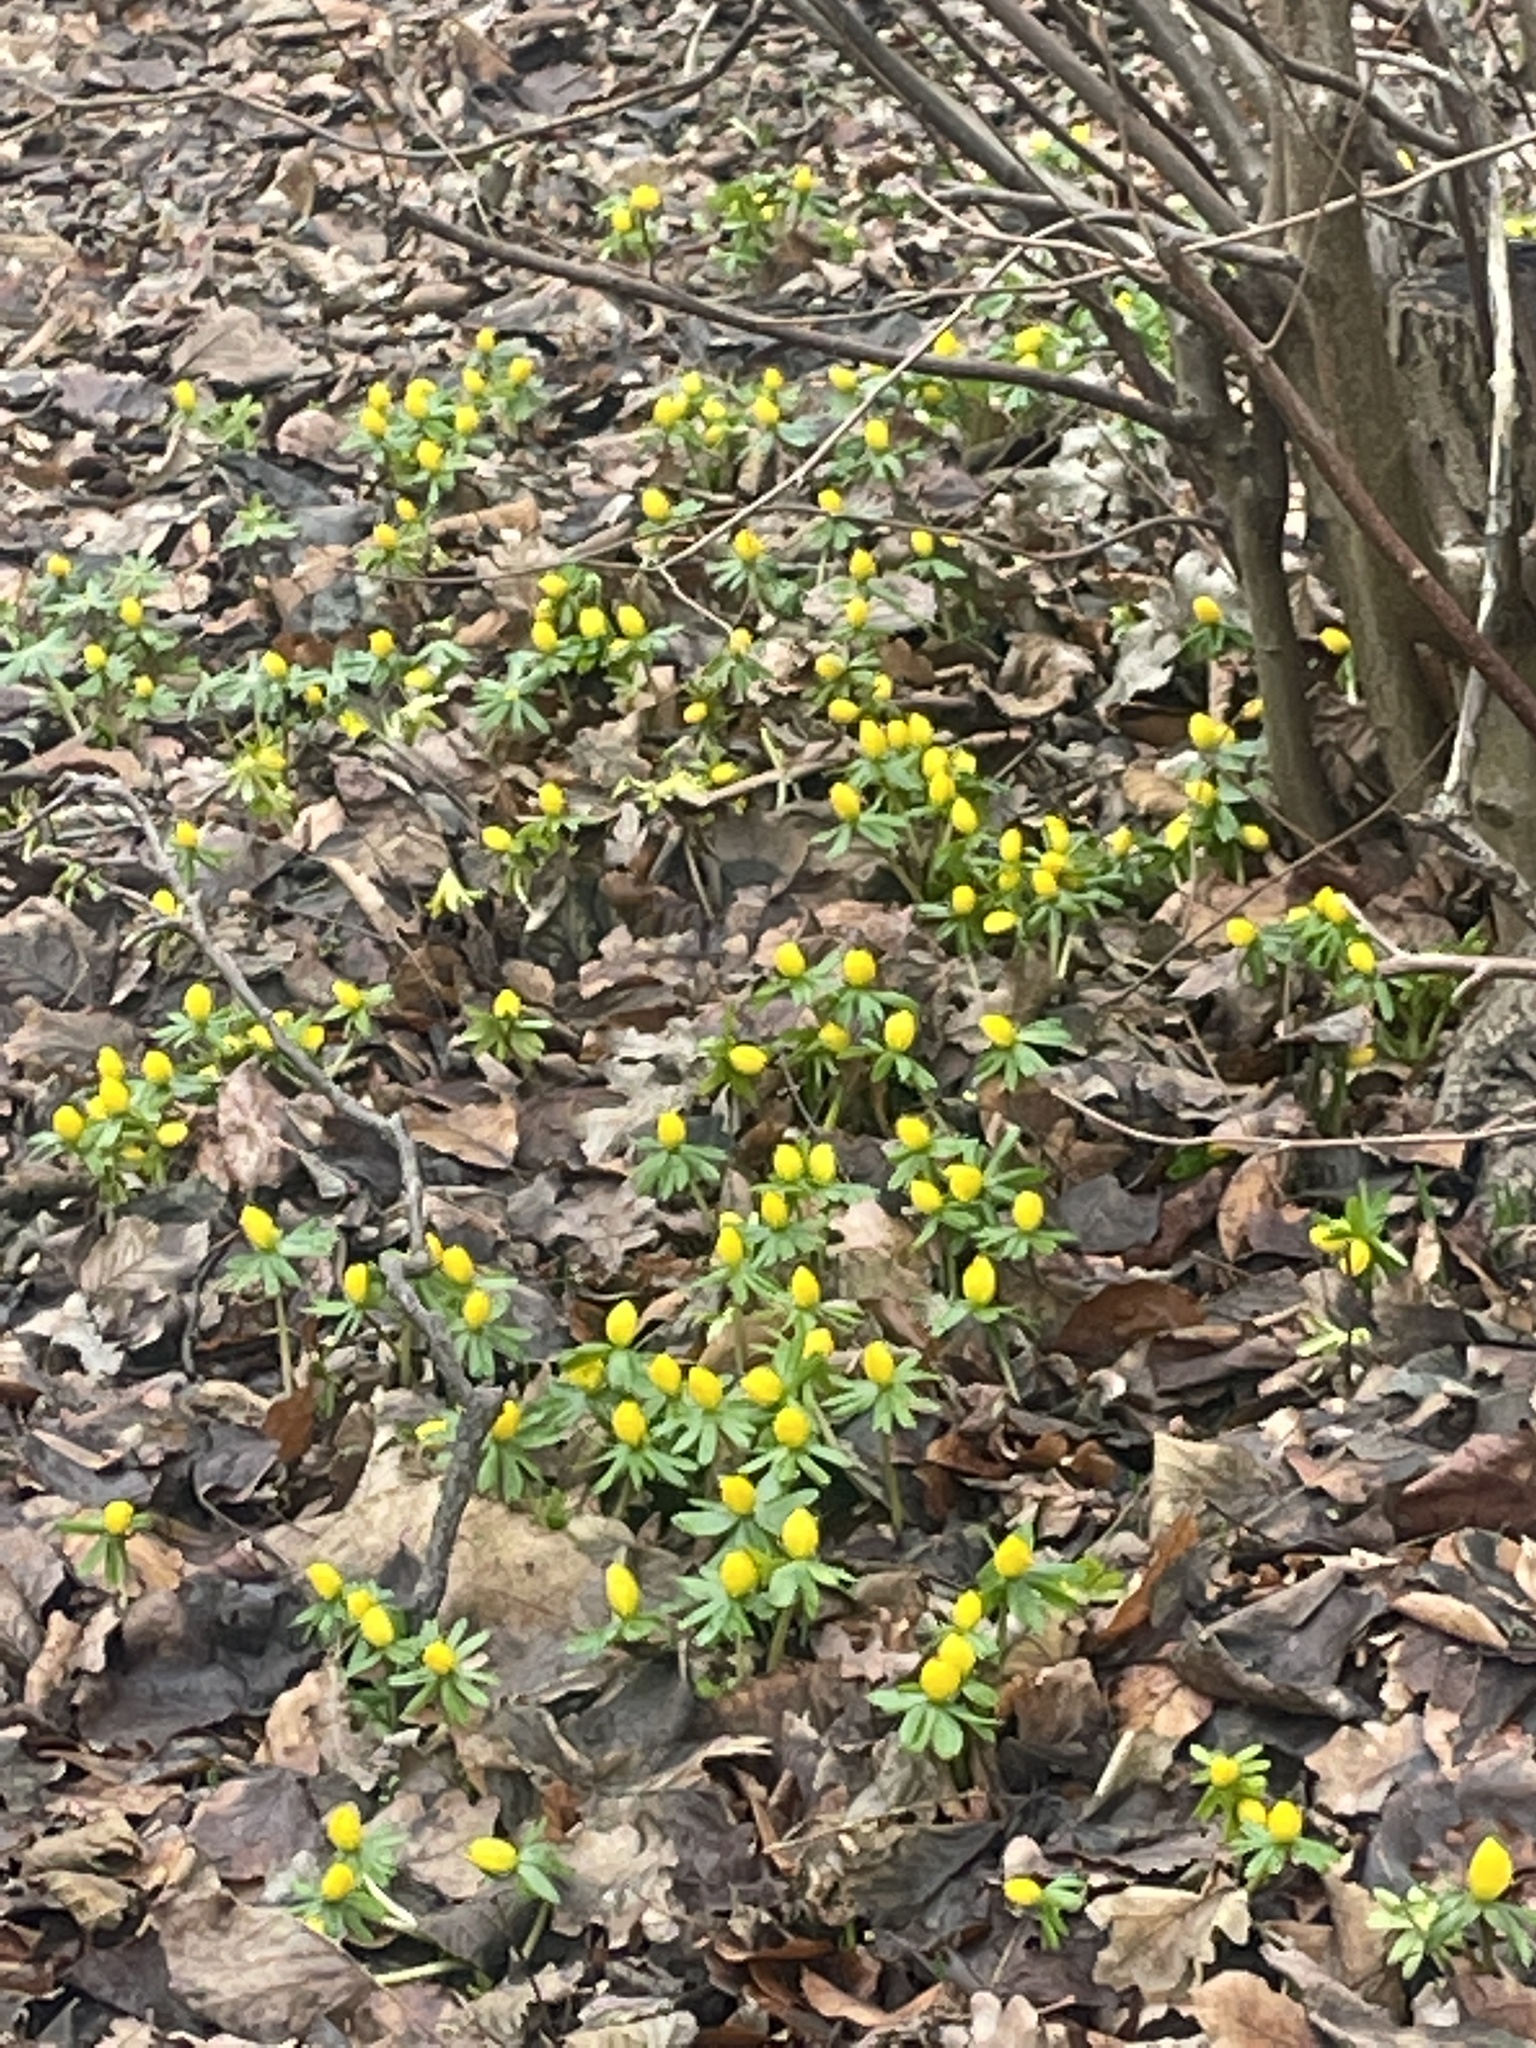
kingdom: Plantae
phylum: Tracheophyta
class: Magnoliopsida
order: Ranunculales
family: Ranunculaceae
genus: Eranthis
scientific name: Eranthis hyemalis
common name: Winter aconite
